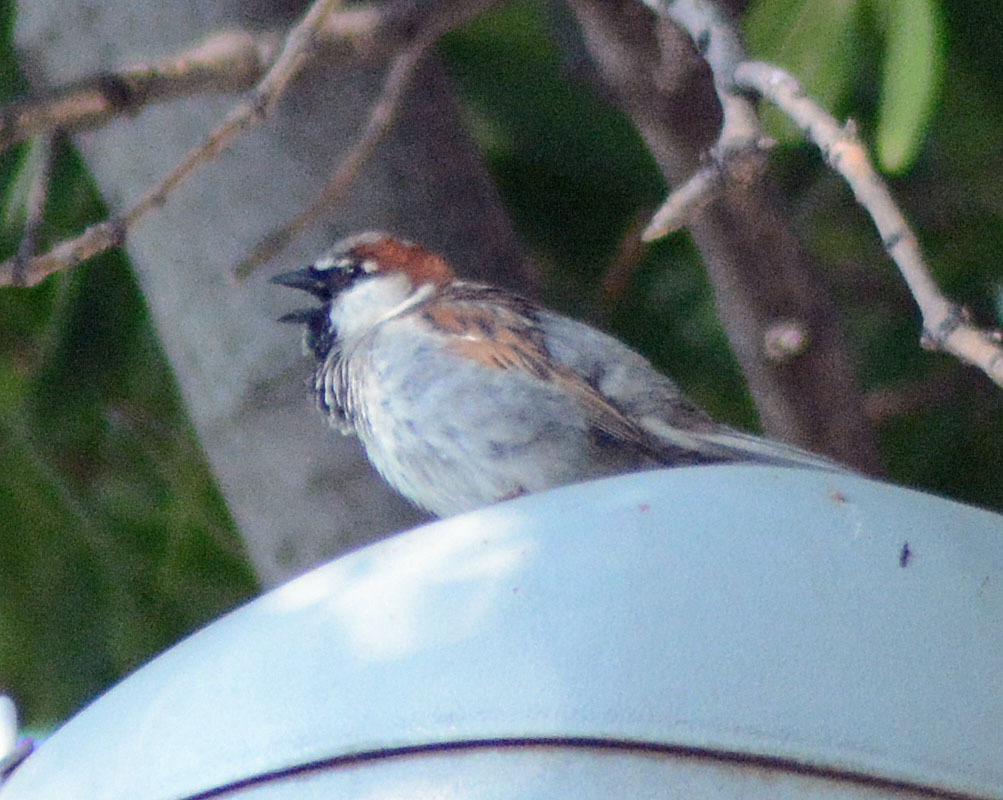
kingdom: Animalia
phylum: Chordata
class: Aves
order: Passeriformes
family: Passeridae
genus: Passer
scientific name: Passer domesticus
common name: House sparrow
